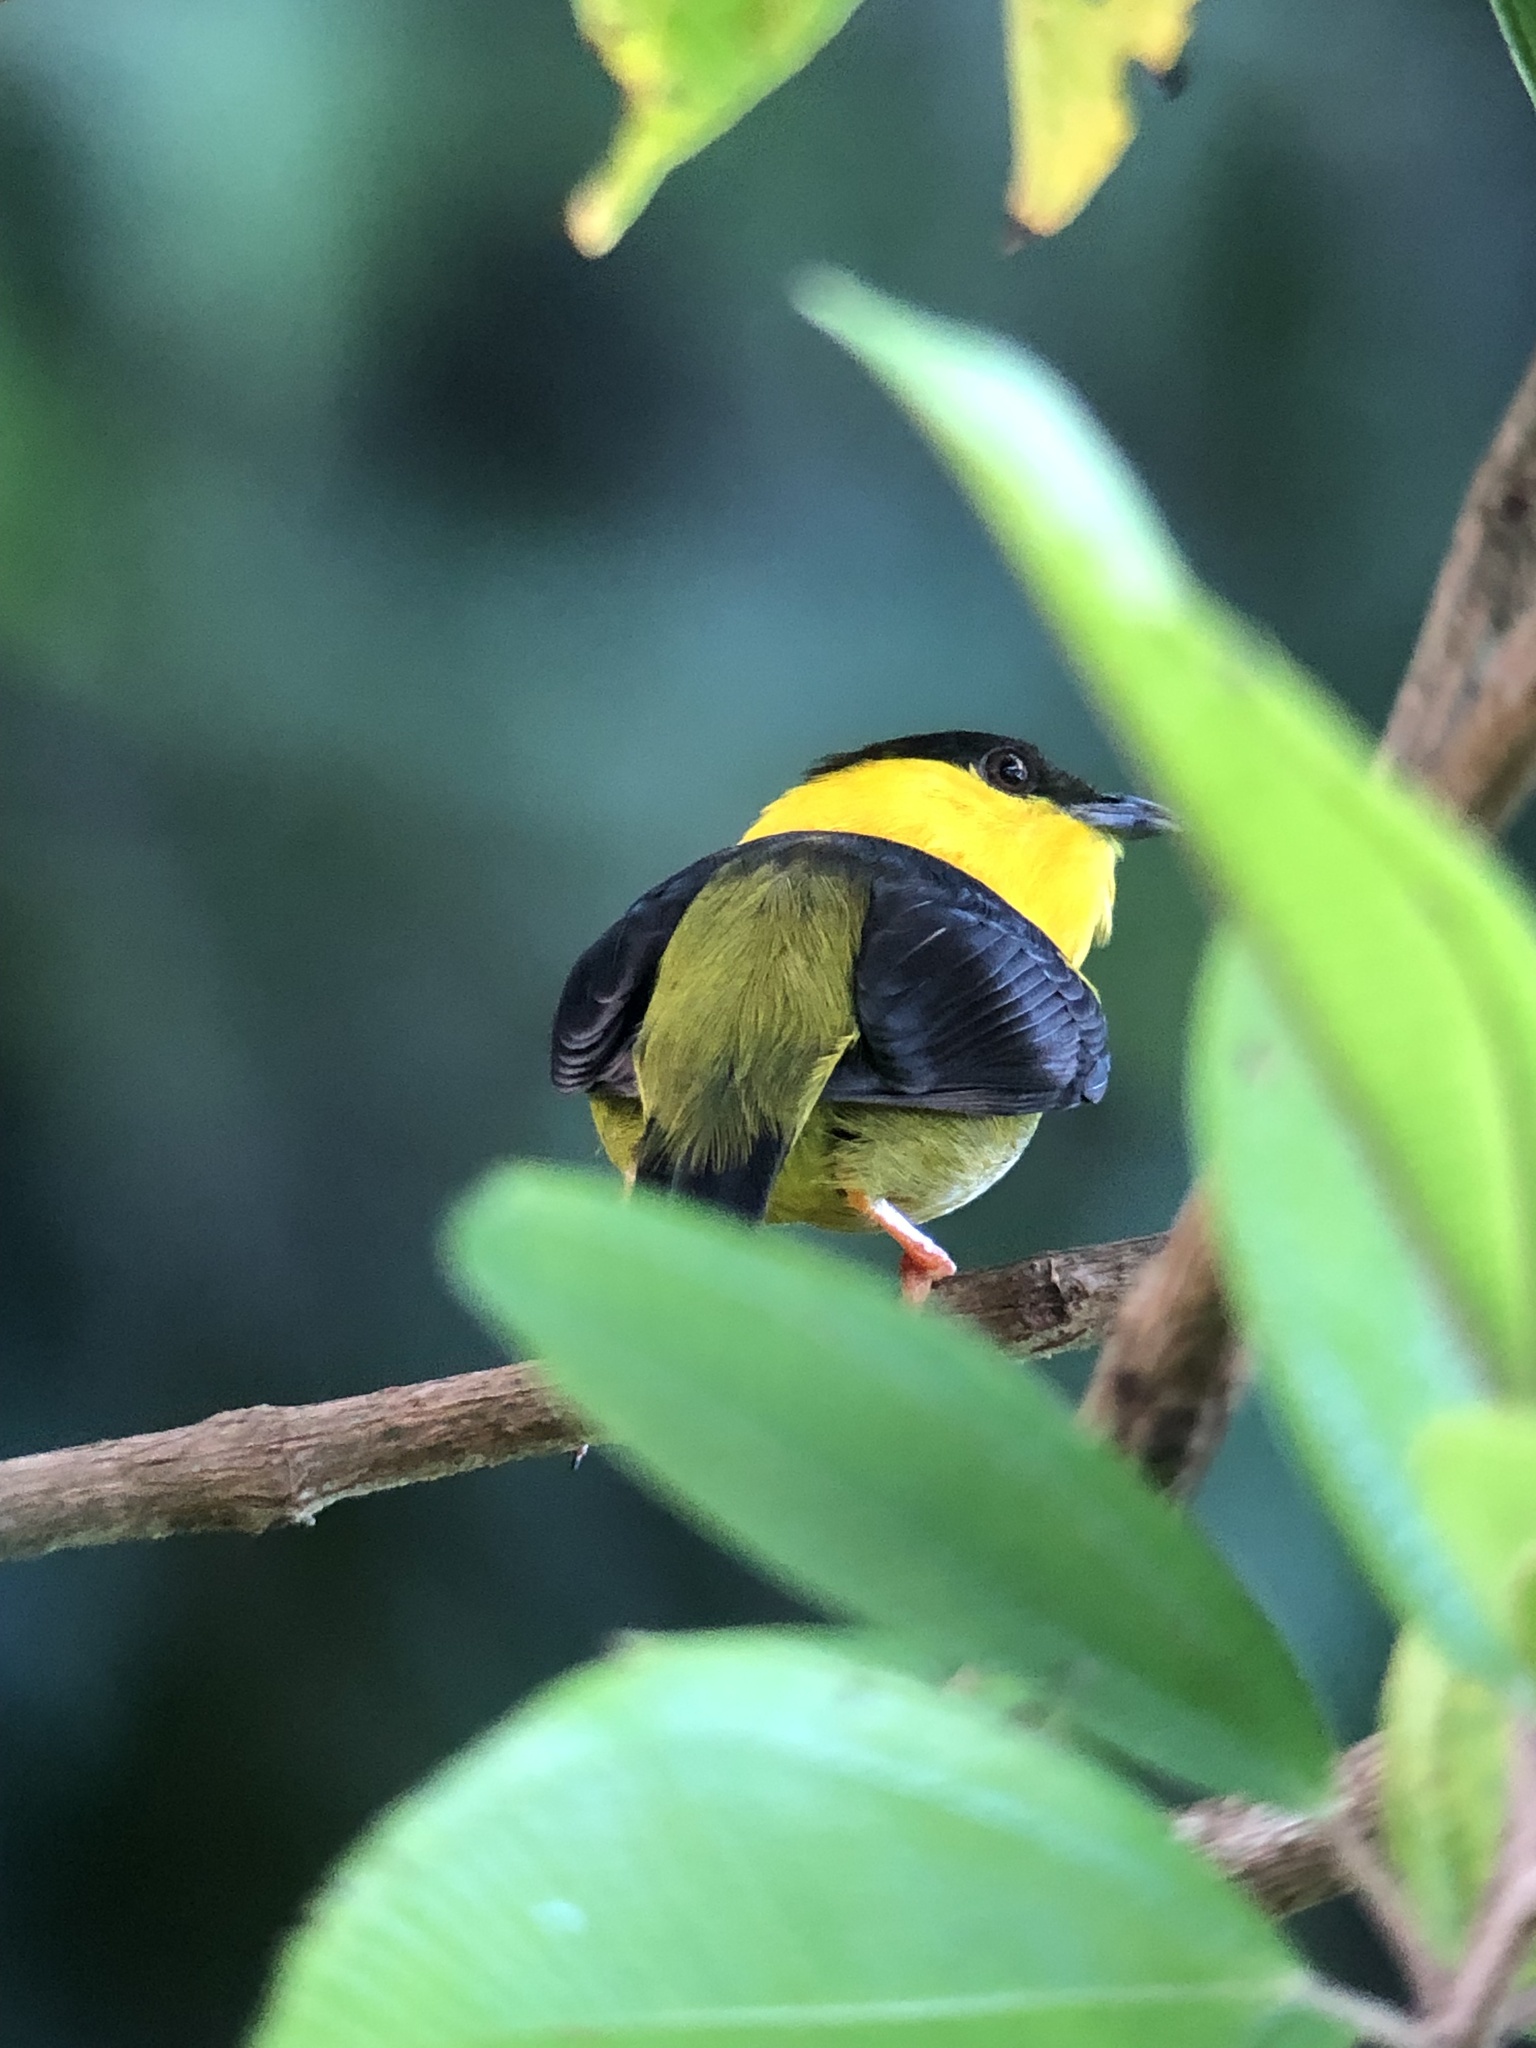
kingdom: Animalia
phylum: Chordata
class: Aves
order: Passeriformes
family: Pipridae
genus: Manacus
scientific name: Manacus vitellinus
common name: Golden-collared manakin
